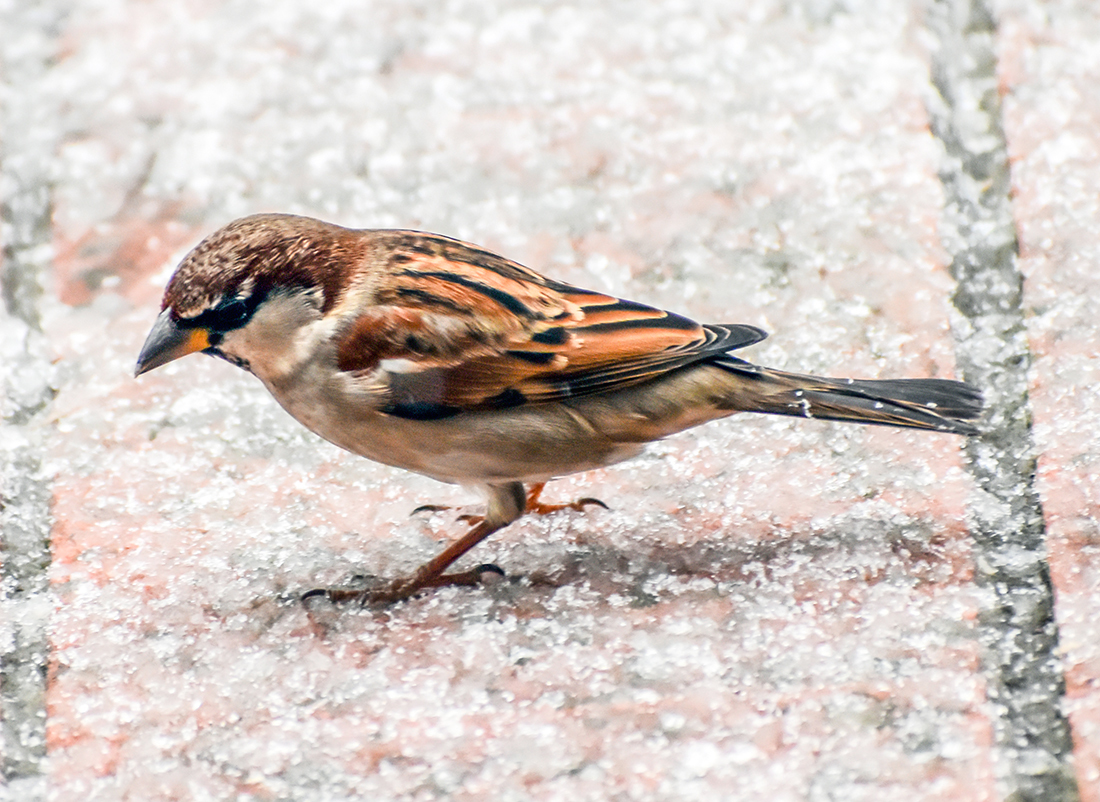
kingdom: Animalia
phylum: Chordata
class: Aves
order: Passeriformes
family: Passeridae
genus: Passer
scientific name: Passer italiae
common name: Italian sparrow
